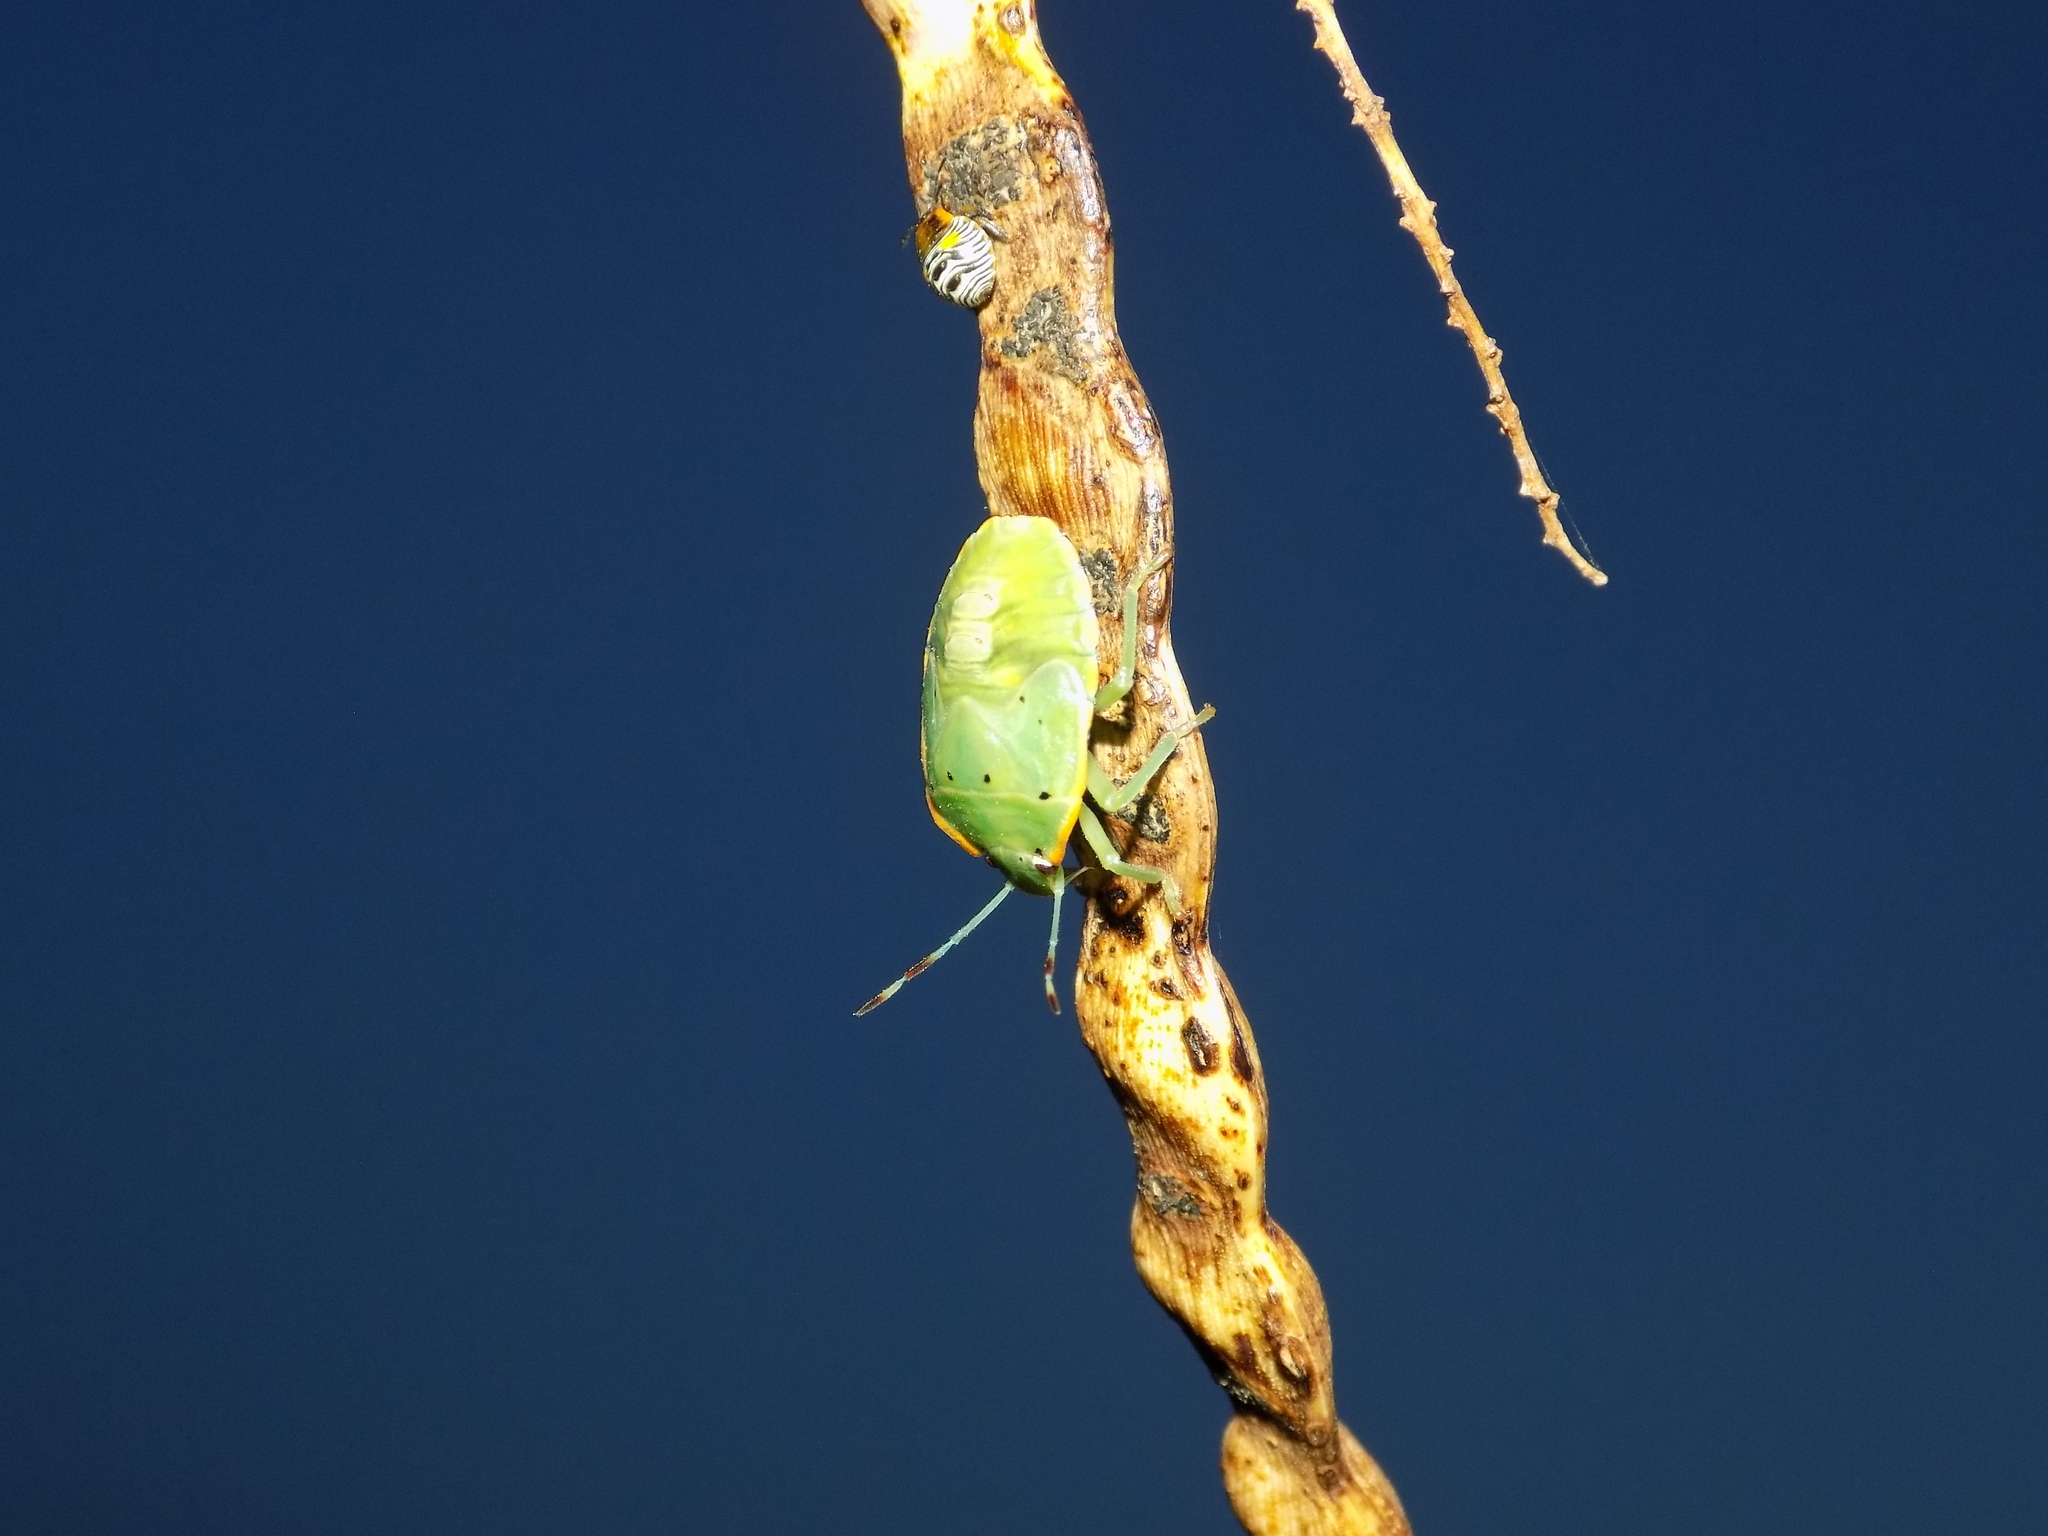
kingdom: Animalia
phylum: Arthropoda
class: Insecta
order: Hemiptera
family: Pentatomidae
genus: Chinavia
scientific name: Chinavia hilaris
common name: Green stink bug
